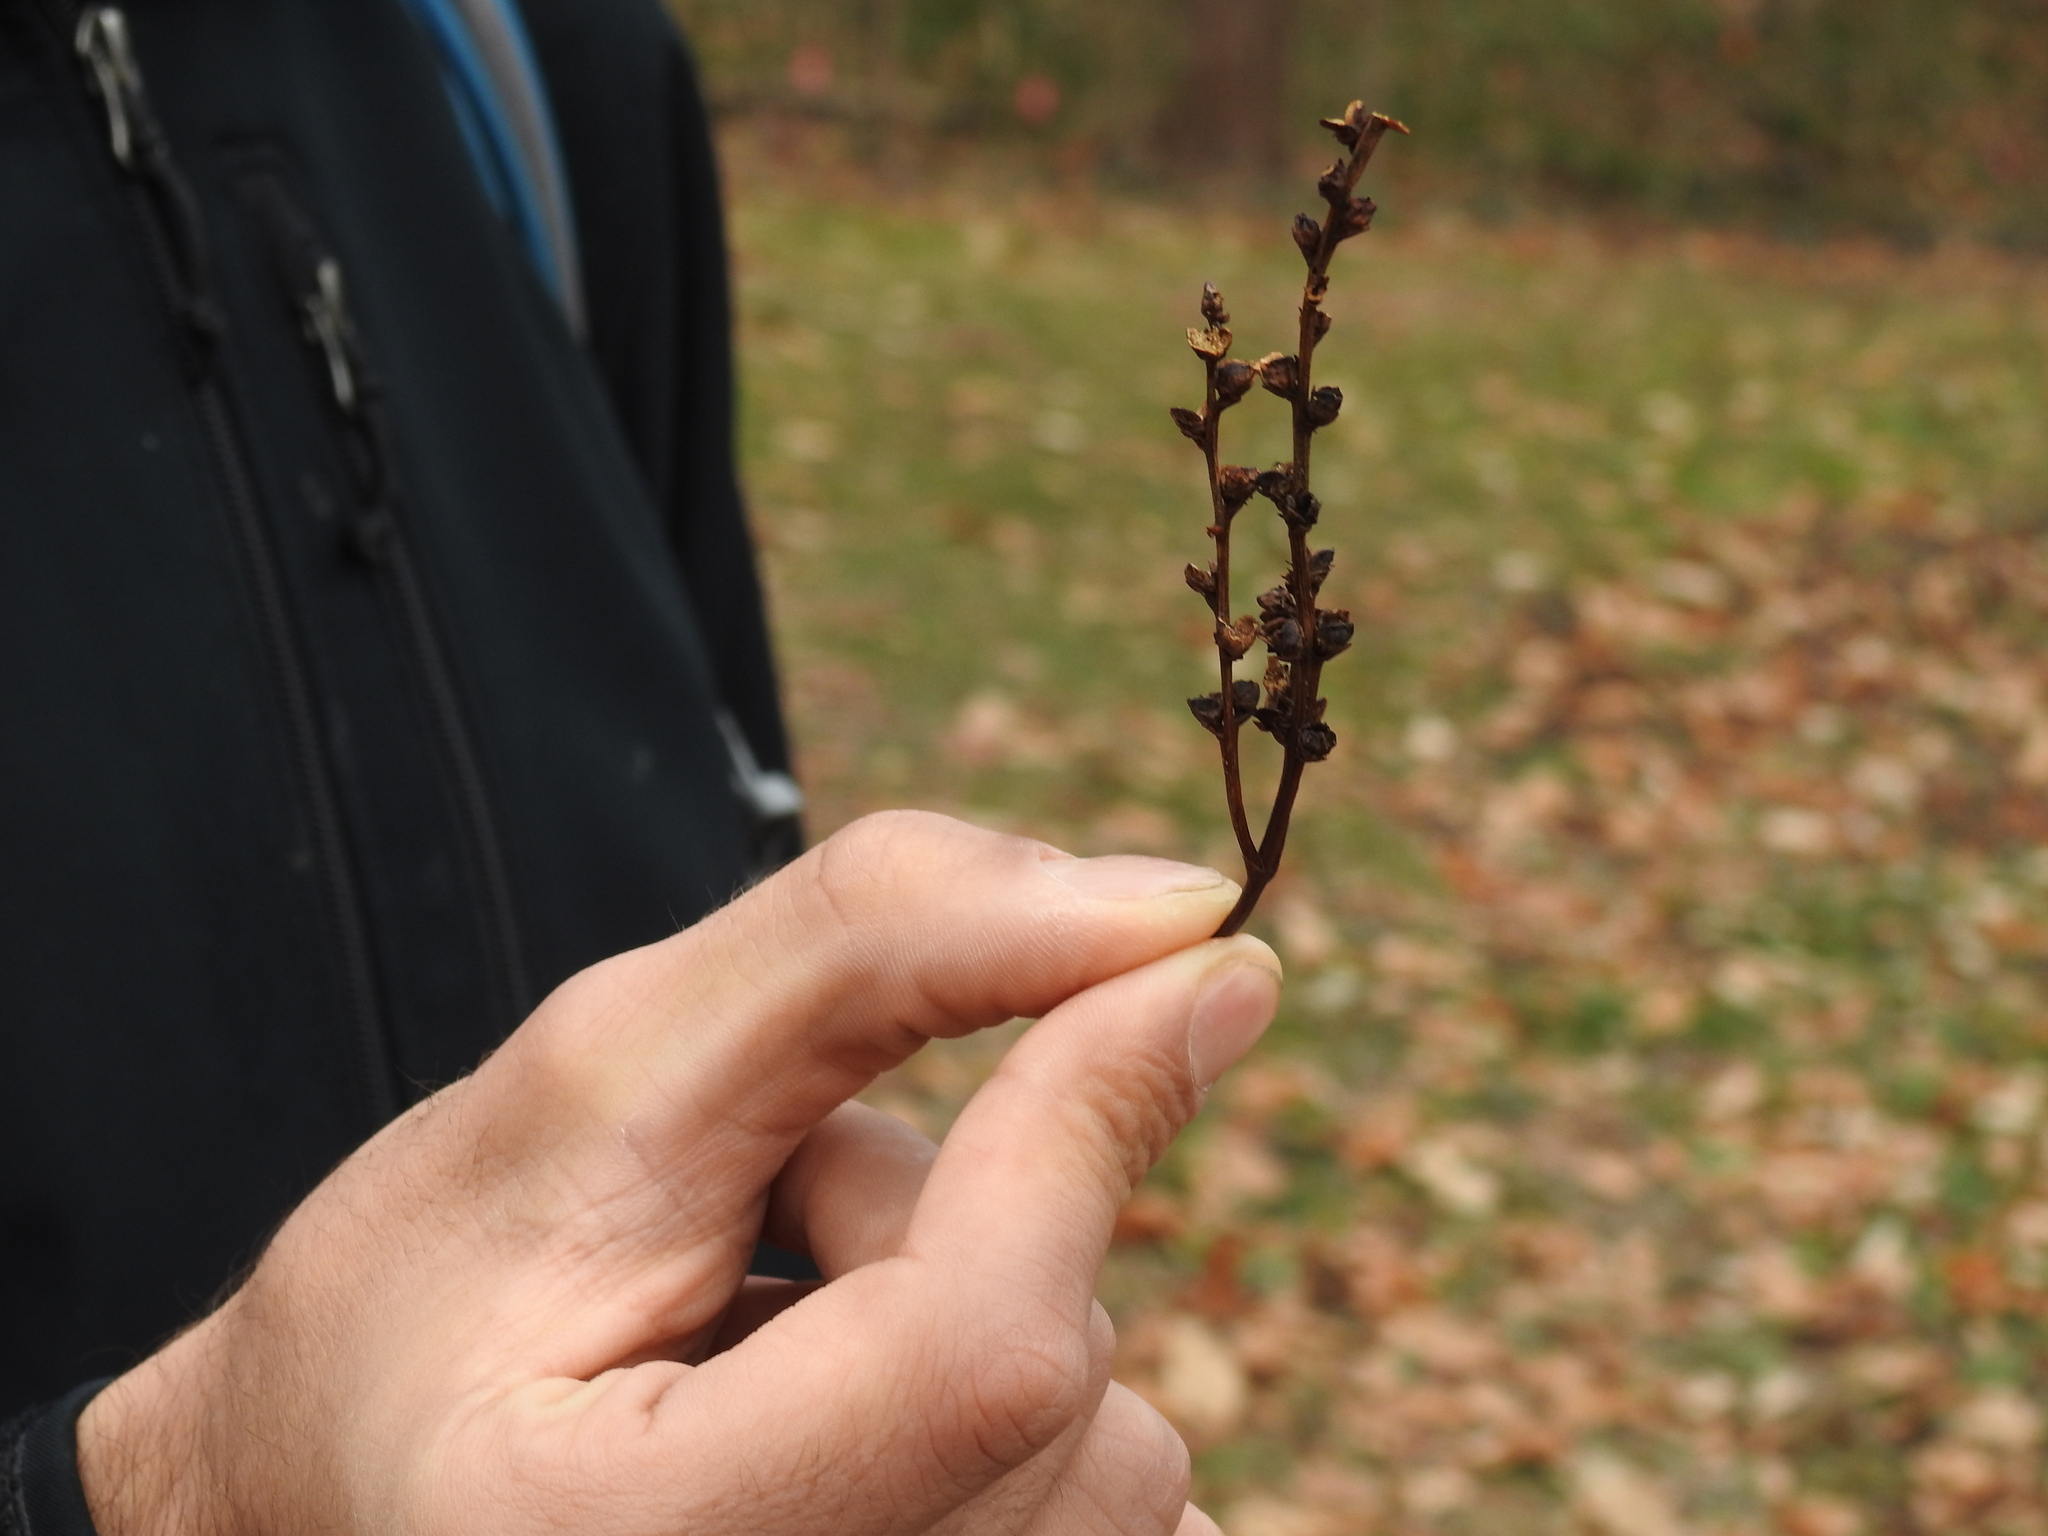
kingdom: Plantae
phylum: Tracheophyta
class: Magnoliopsida
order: Lamiales
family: Orobanchaceae
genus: Epifagus
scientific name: Epifagus virginiana
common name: Beechdrops
